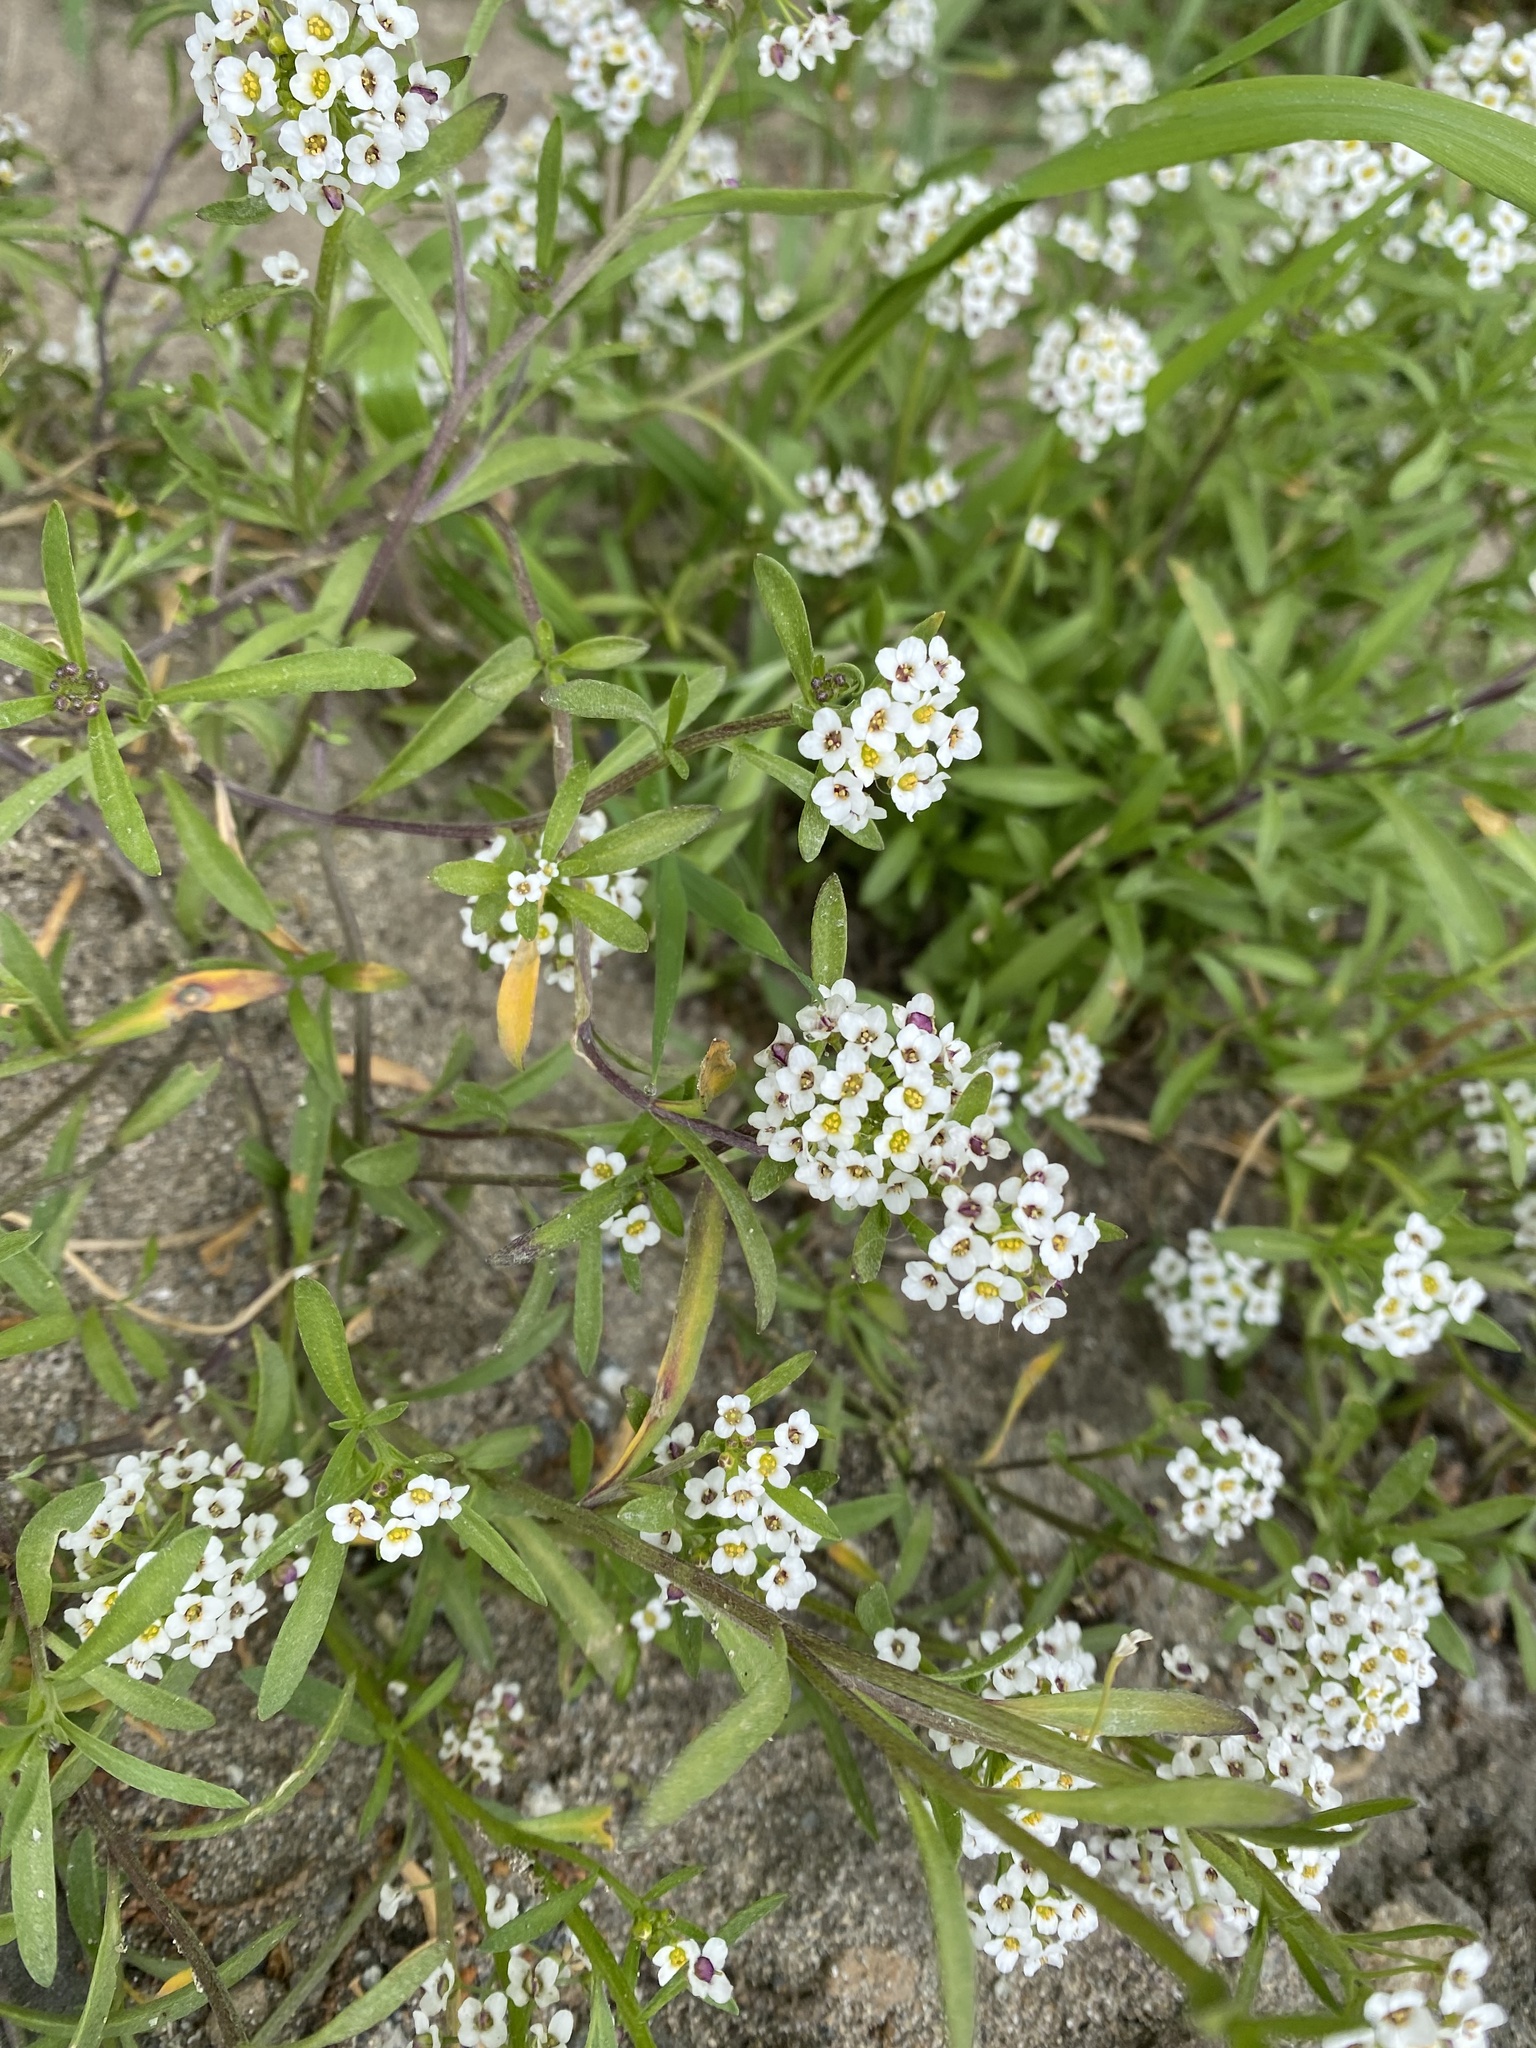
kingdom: Plantae
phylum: Tracheophyta
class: Magnoliopsida
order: Brassicales
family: Brassicaceae
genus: Lobularia
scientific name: Lobularia maritima
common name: Sweet alison
